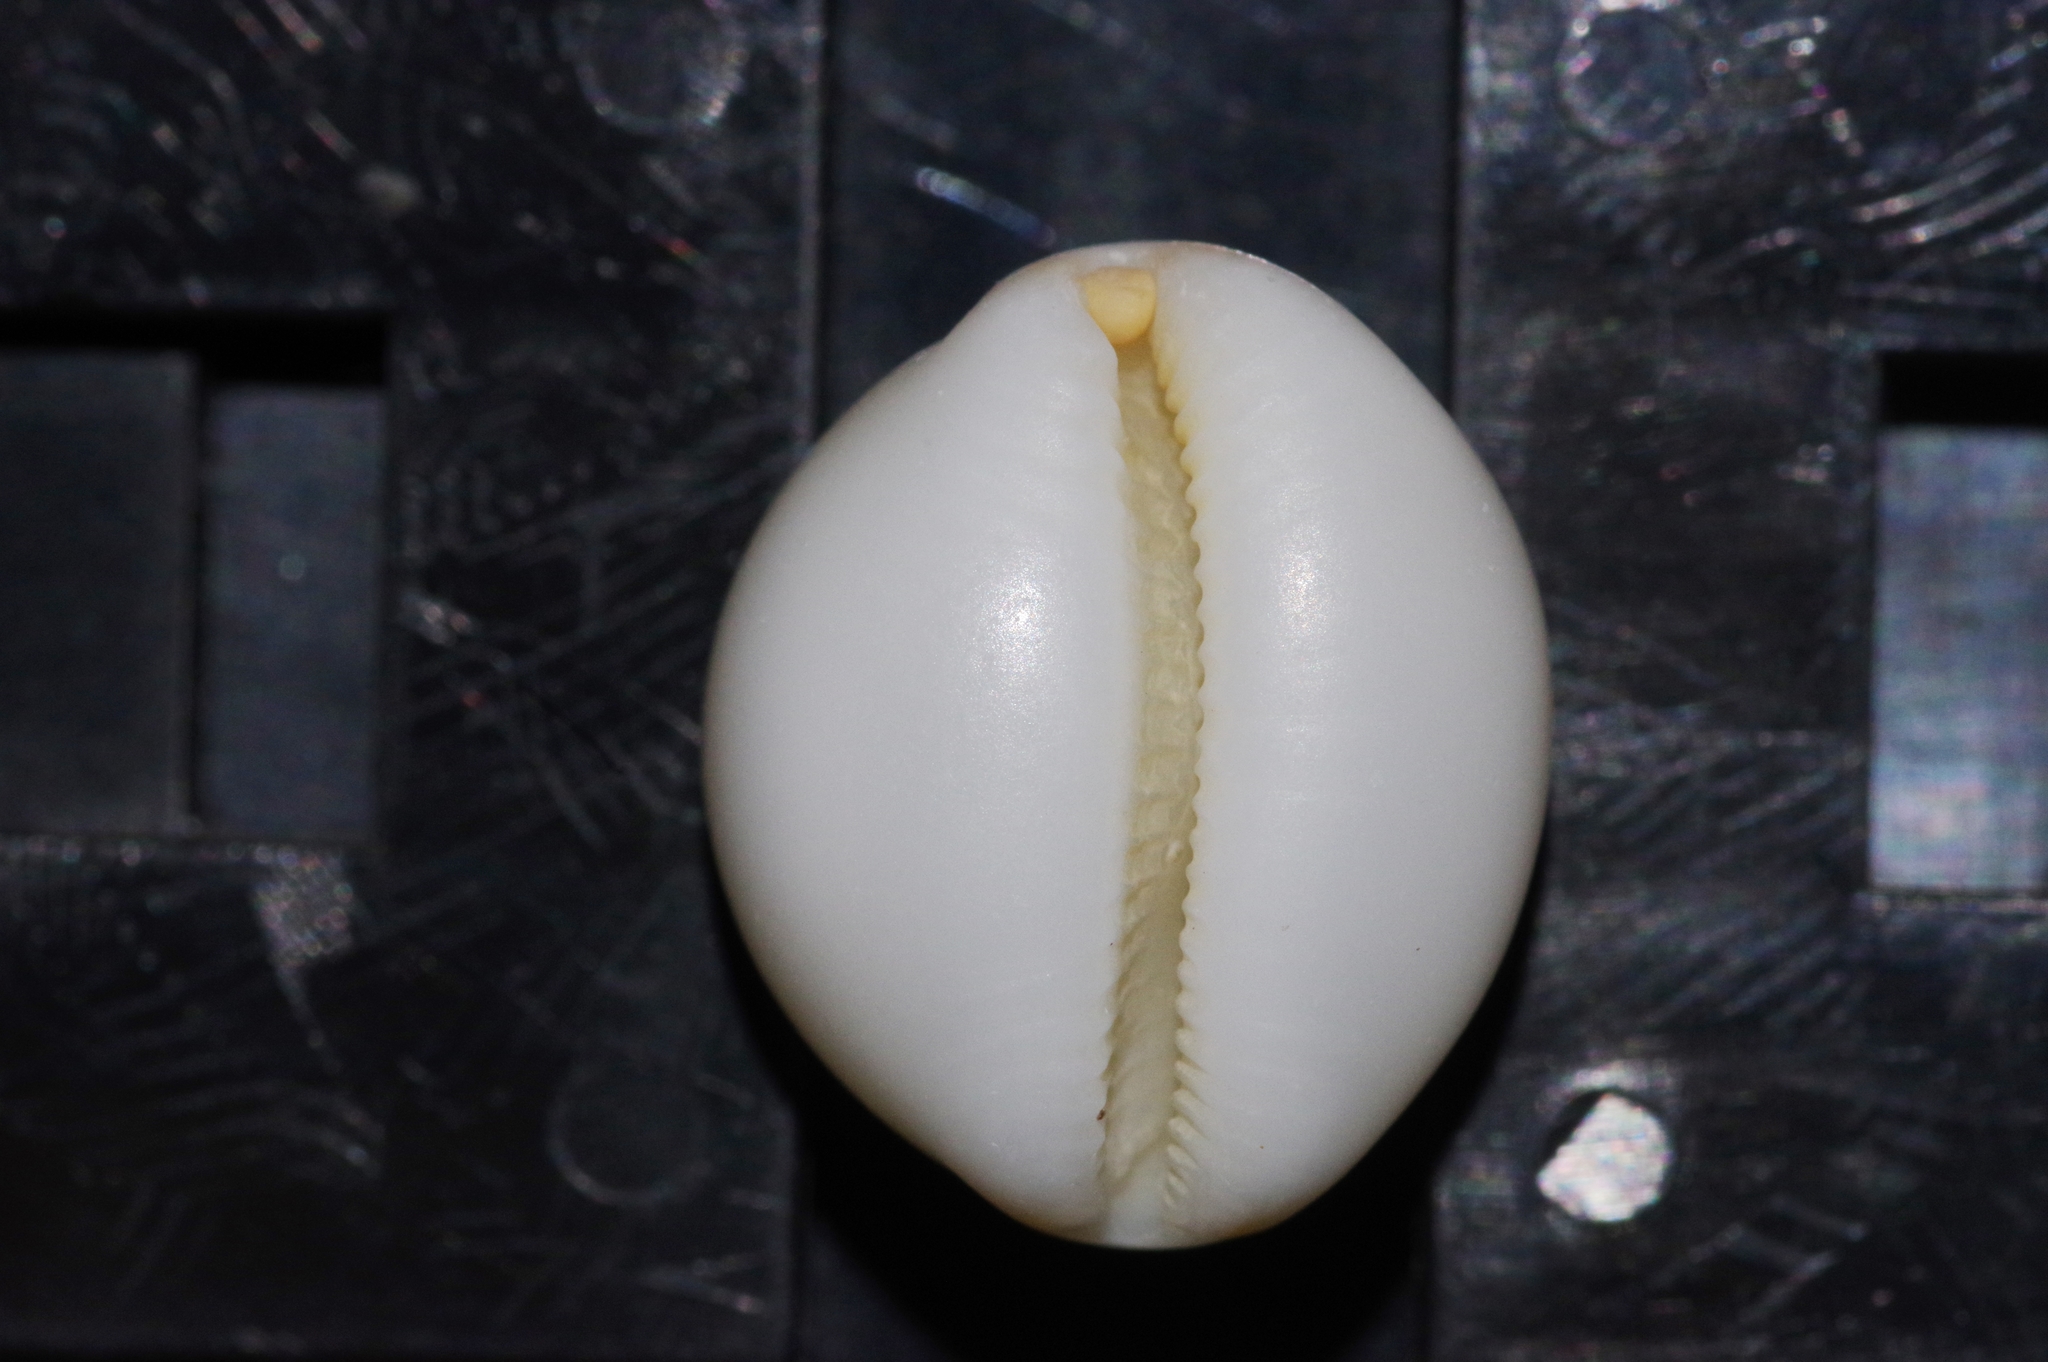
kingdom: Animalia
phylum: Mollusca
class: Gastropoda
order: Littorinimorpha
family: Cypraeidae
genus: Pustularia
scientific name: Pustularia bistrinotata
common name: Treblespotted cowrie
